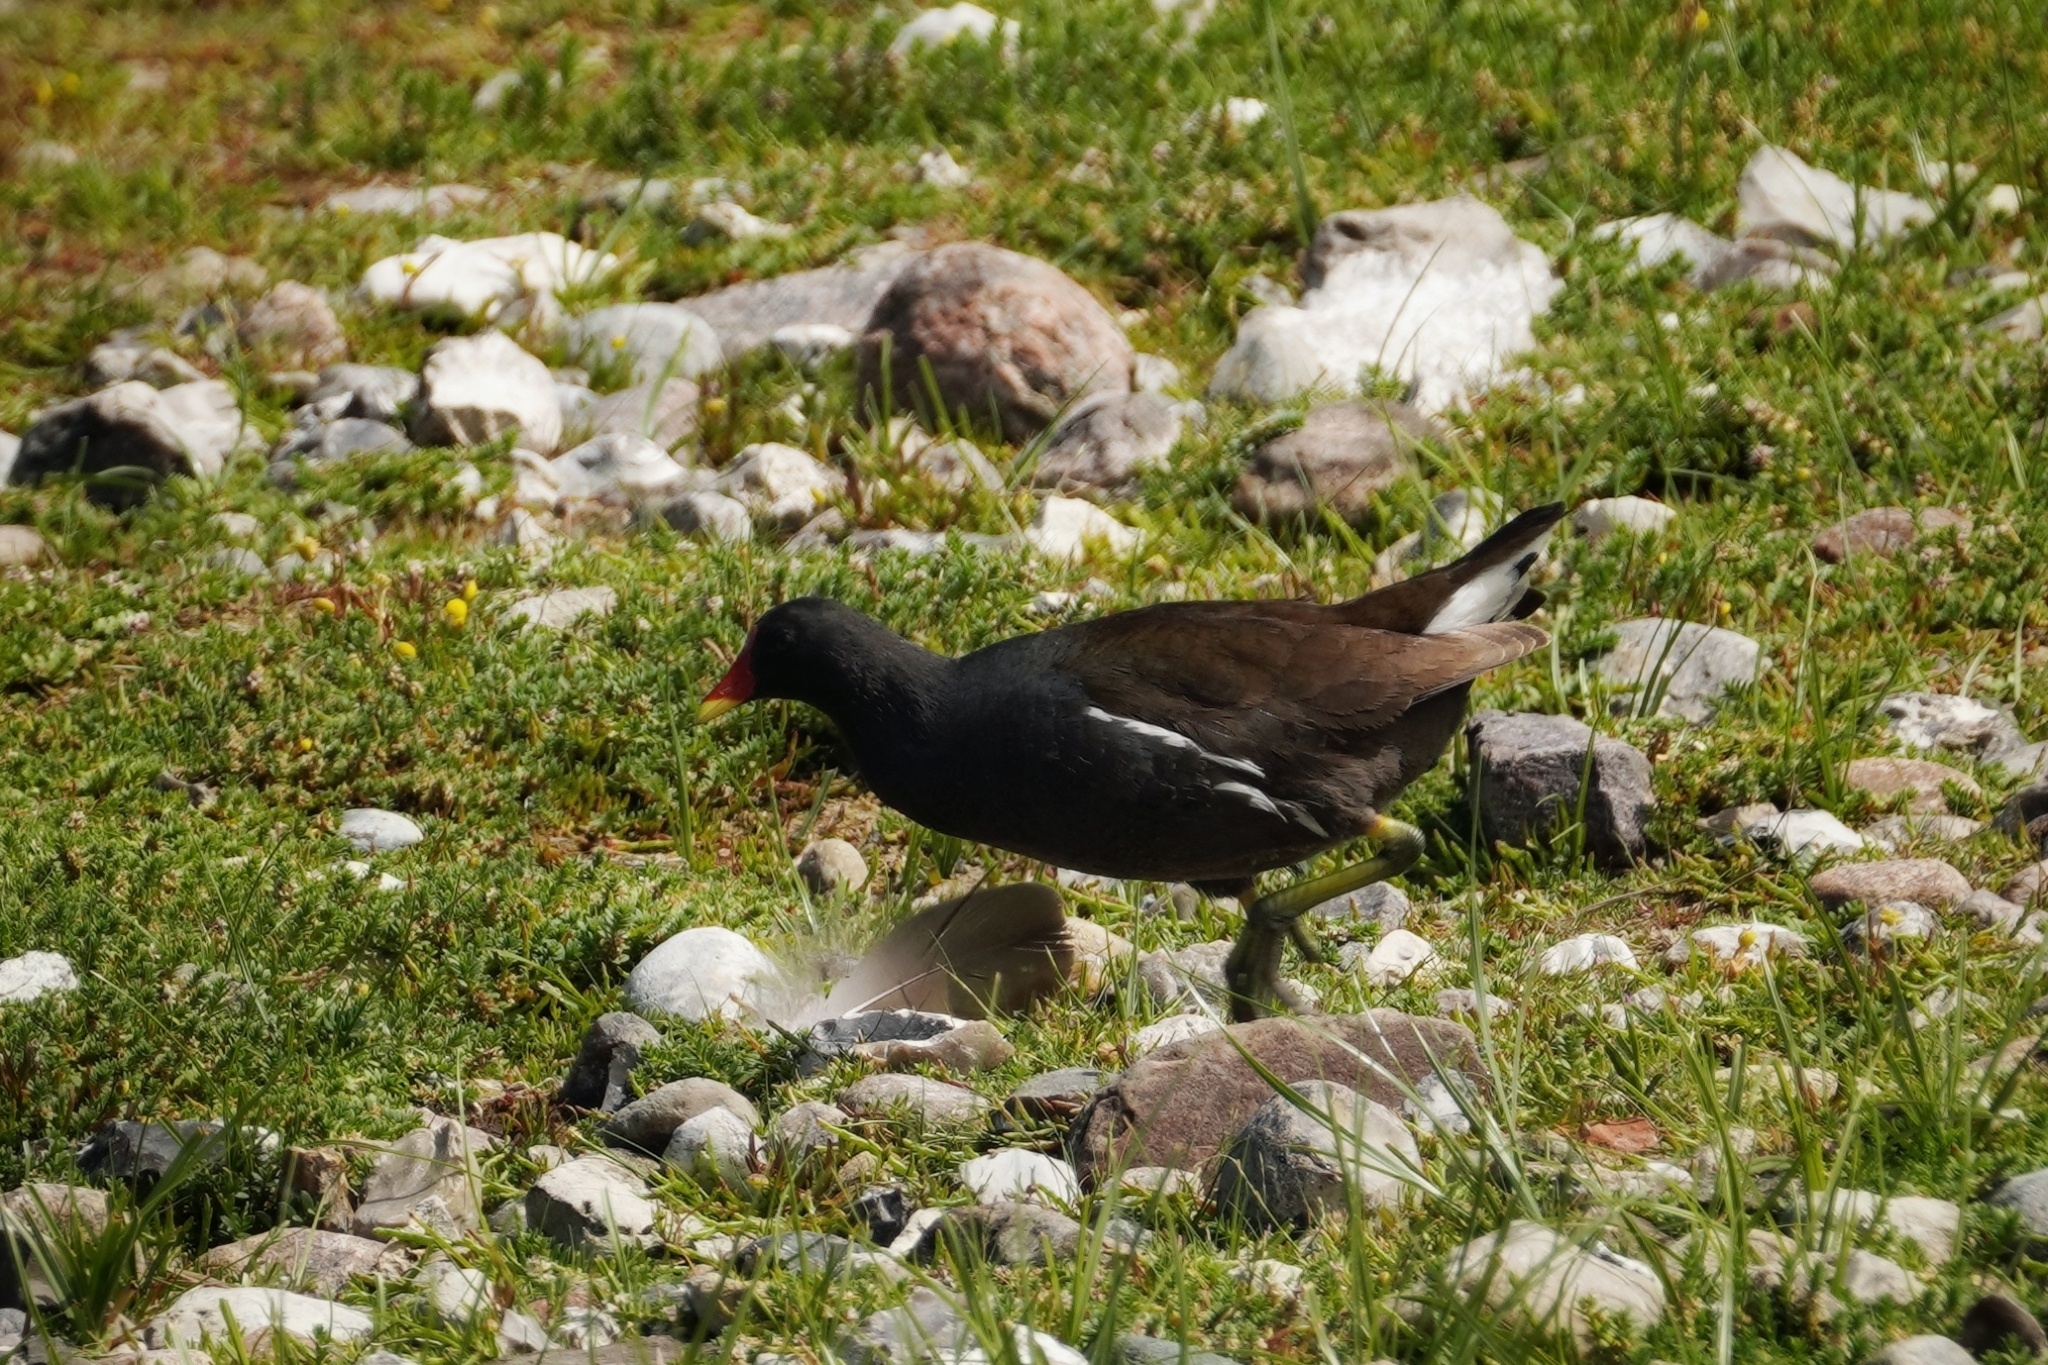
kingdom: Animalia
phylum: Chordata
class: Aves
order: Gruiformes
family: Rallidae
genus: Gallinula
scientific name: Gallinula chloropus
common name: Common moorhen
